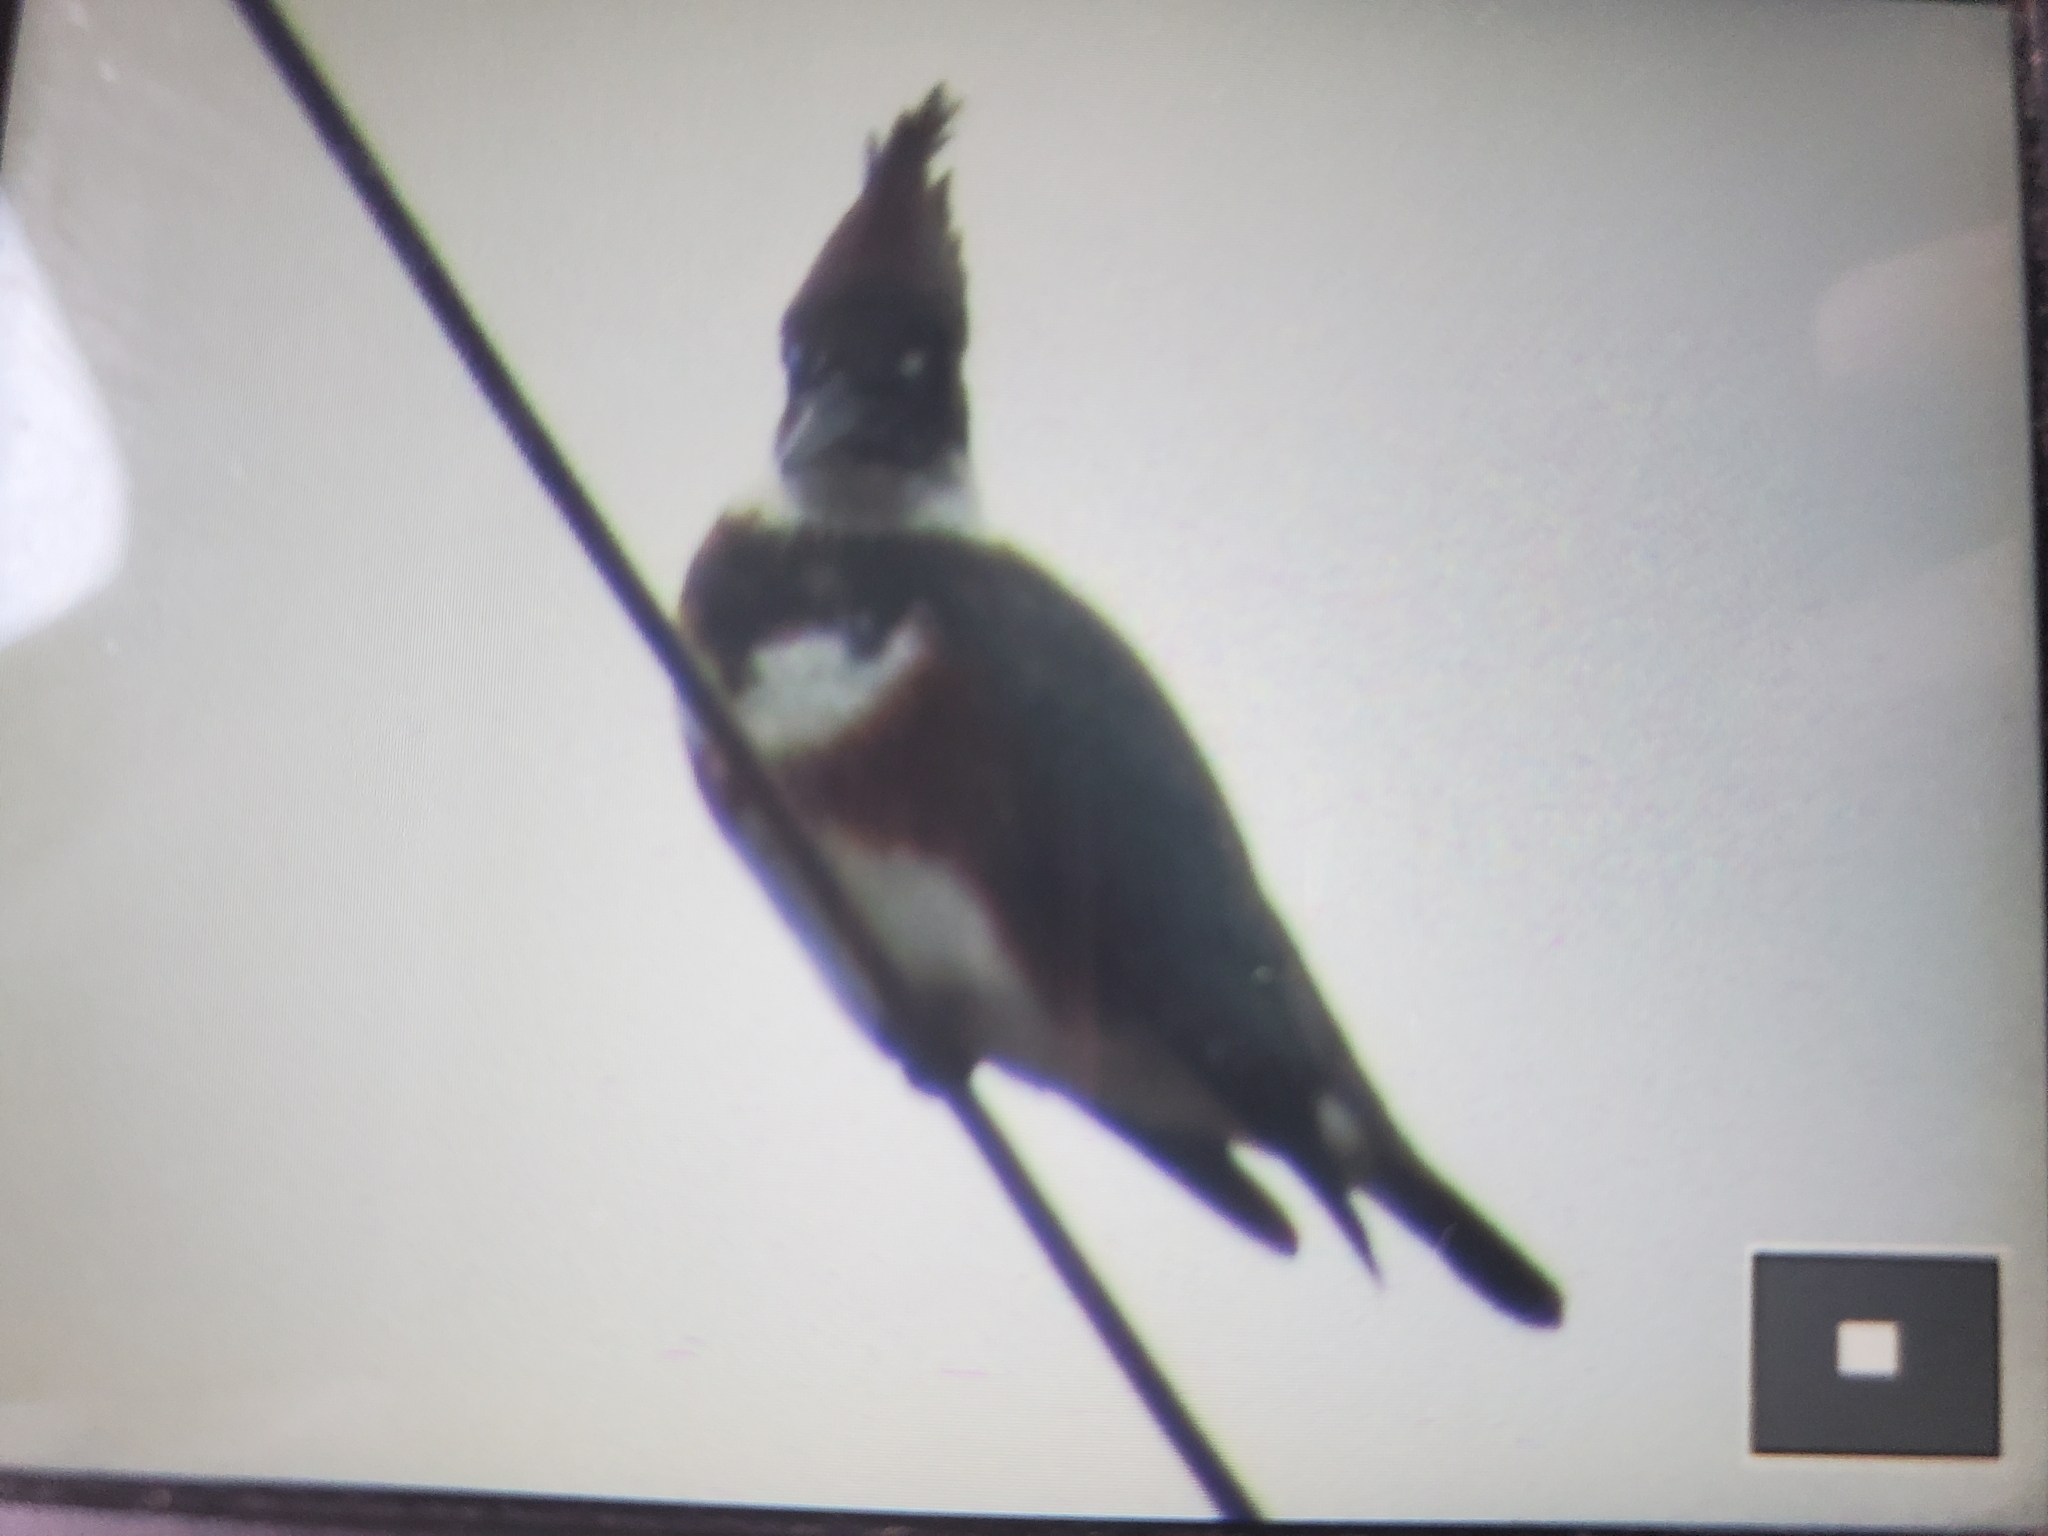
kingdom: Animalia
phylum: Chordata
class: Aves
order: Coraciiformes
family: Alcedinidae
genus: Megaceryle
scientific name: Megaceryle alcyon
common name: Belted kingfisher
